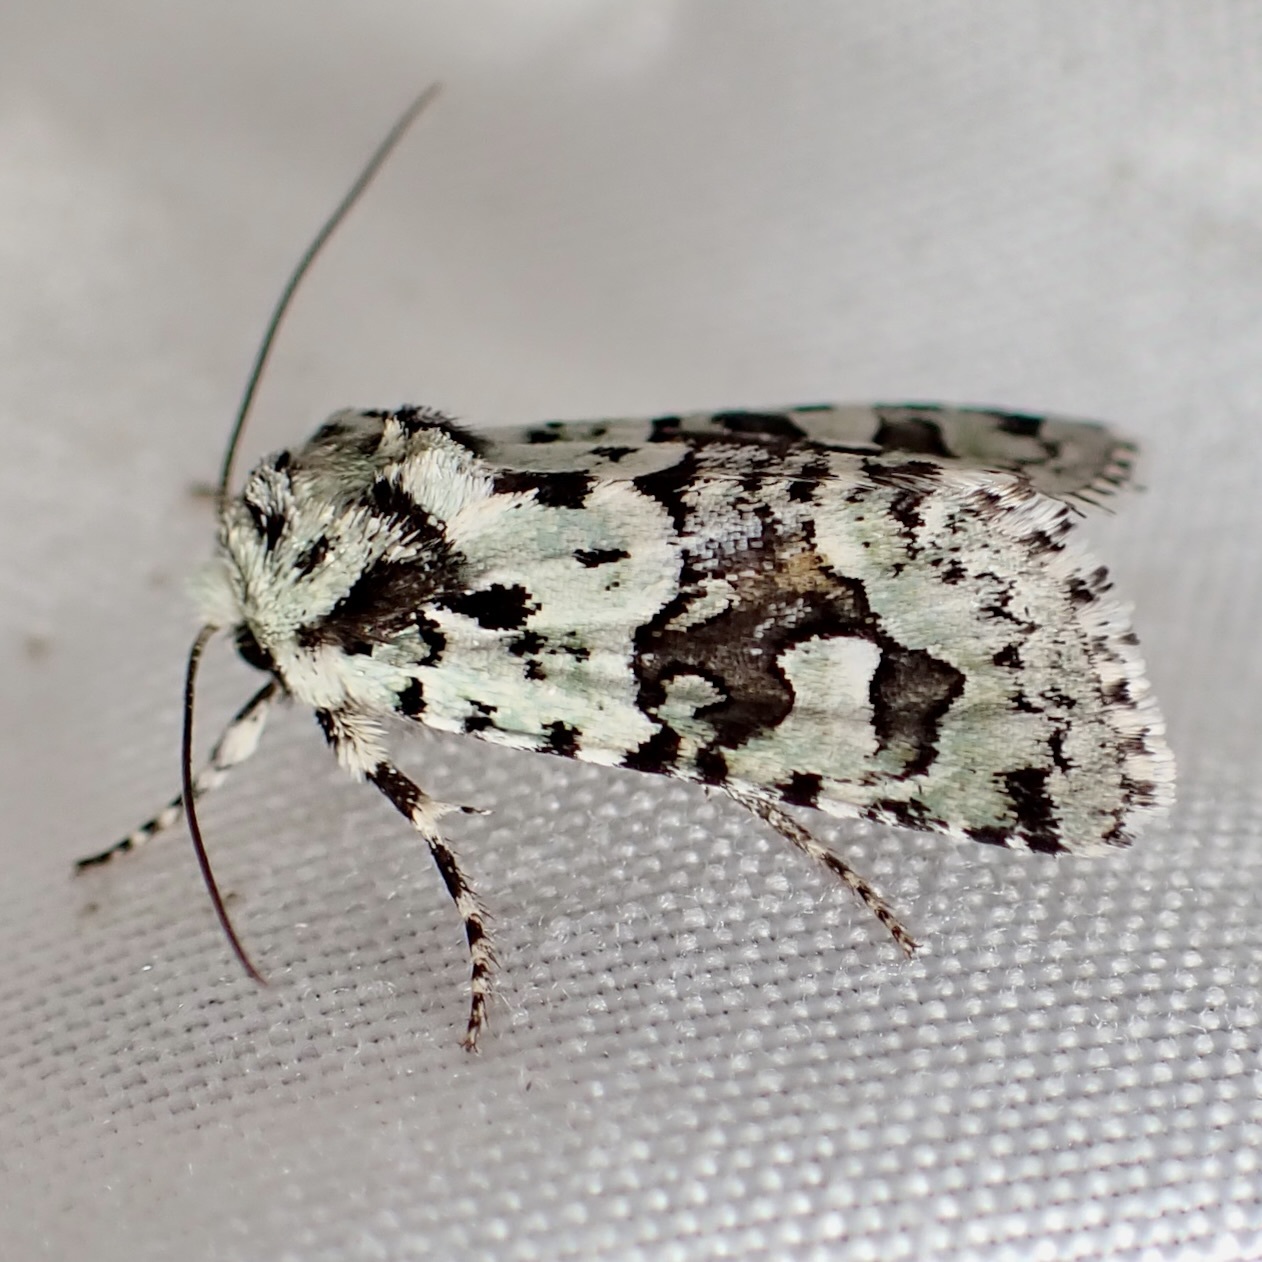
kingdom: Animalia
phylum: Arthropoda
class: Insecta
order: Lepidoptera
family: Noctuidae
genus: Lacinipolia
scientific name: Lacinipolia consimilis
